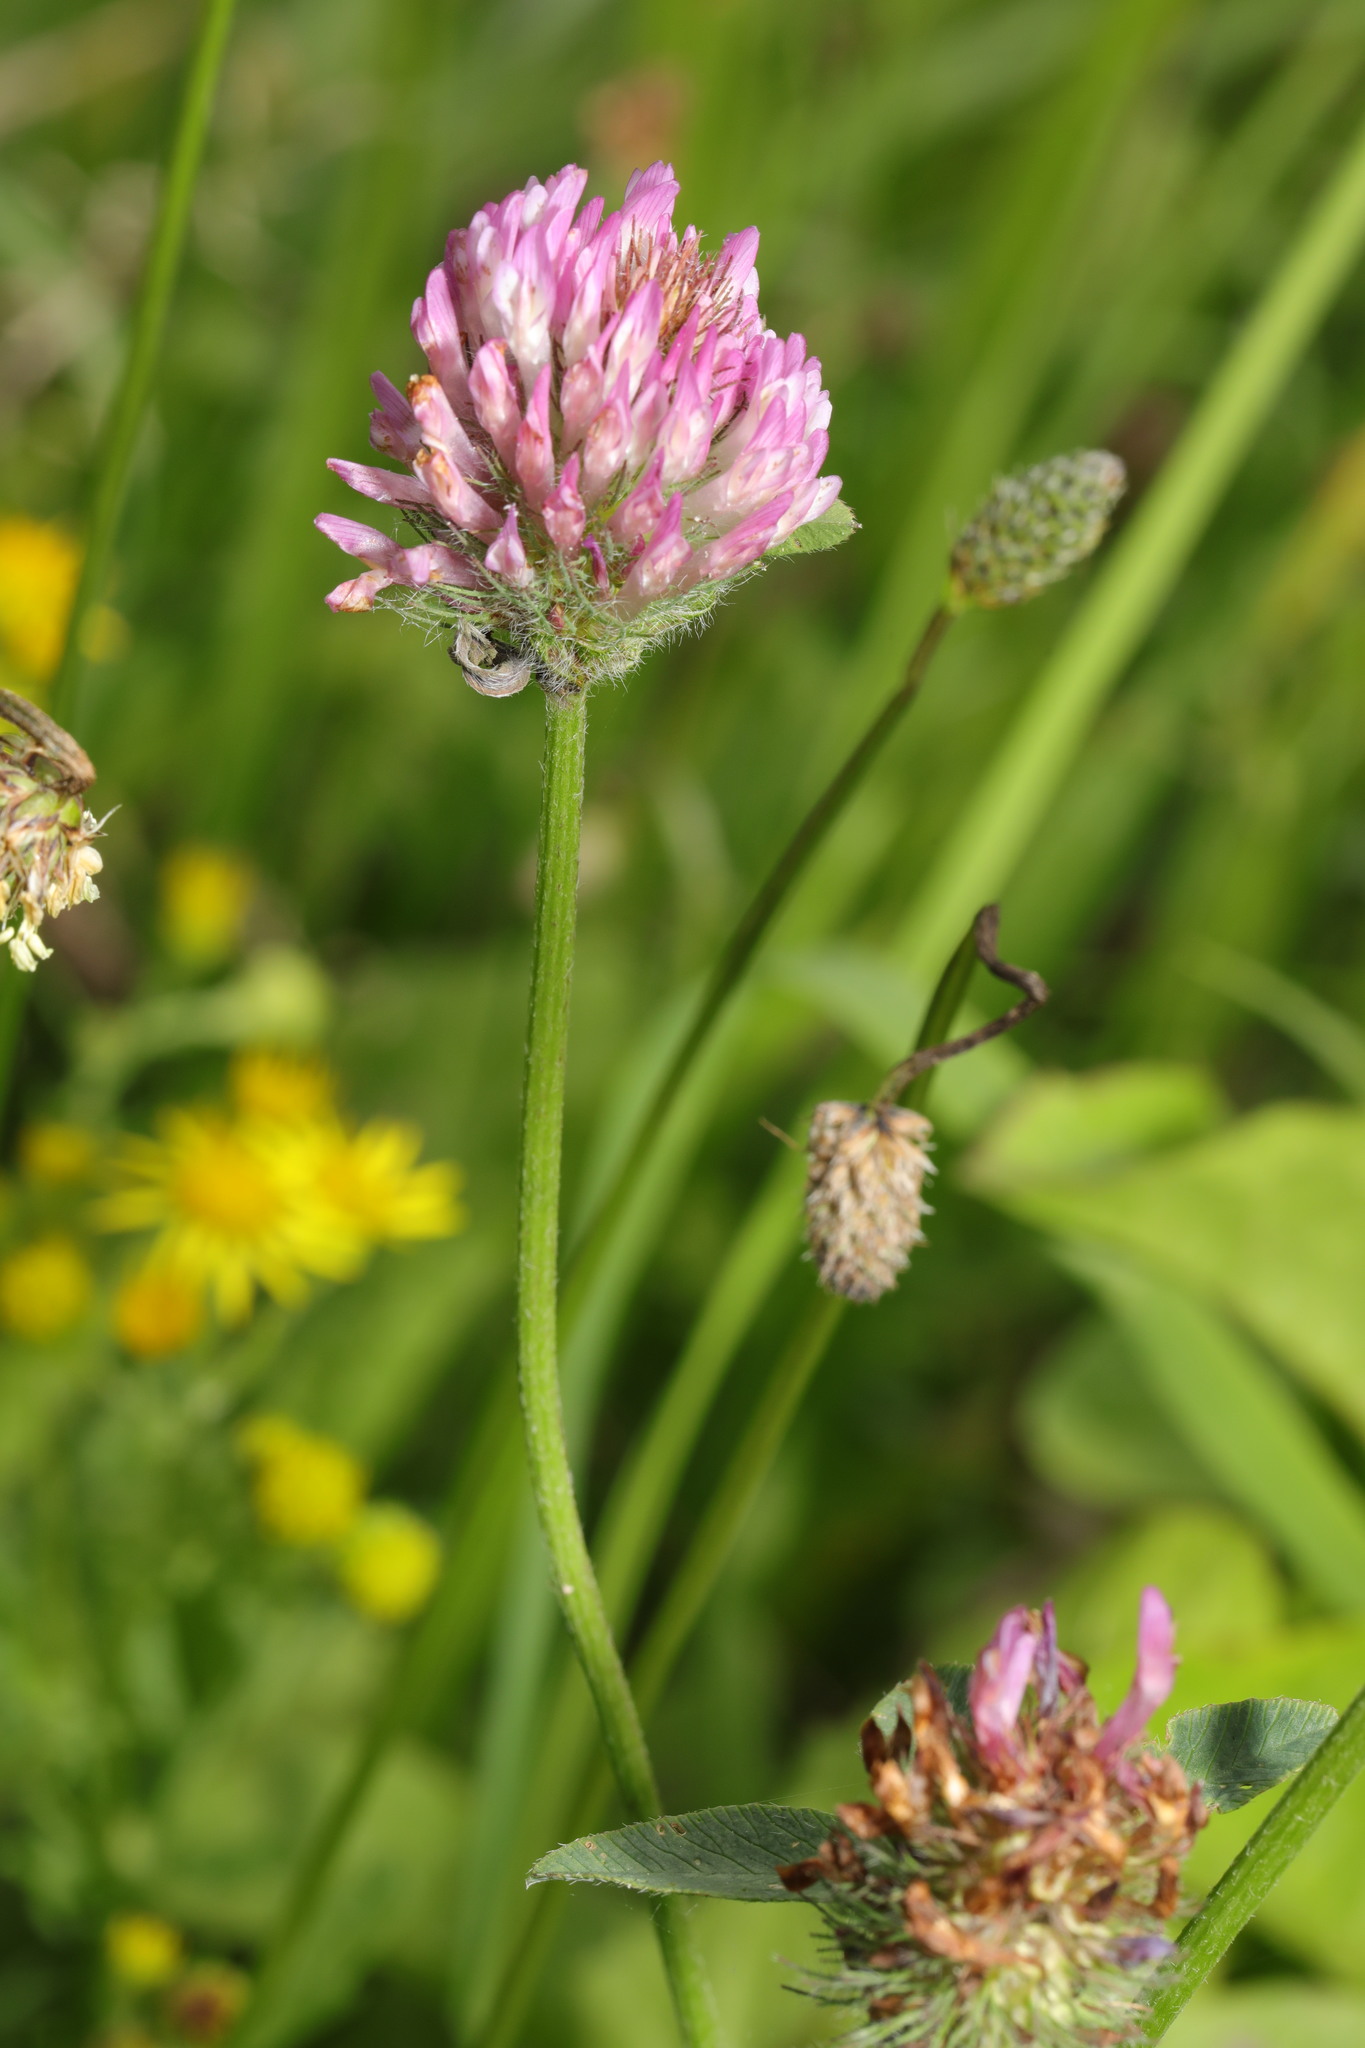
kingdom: Plantae
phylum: Tracheophyta
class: Magnoliopsida
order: Fabales
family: Fabaceae
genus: Trifolium
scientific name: Trifolium pratense
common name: Red clover
